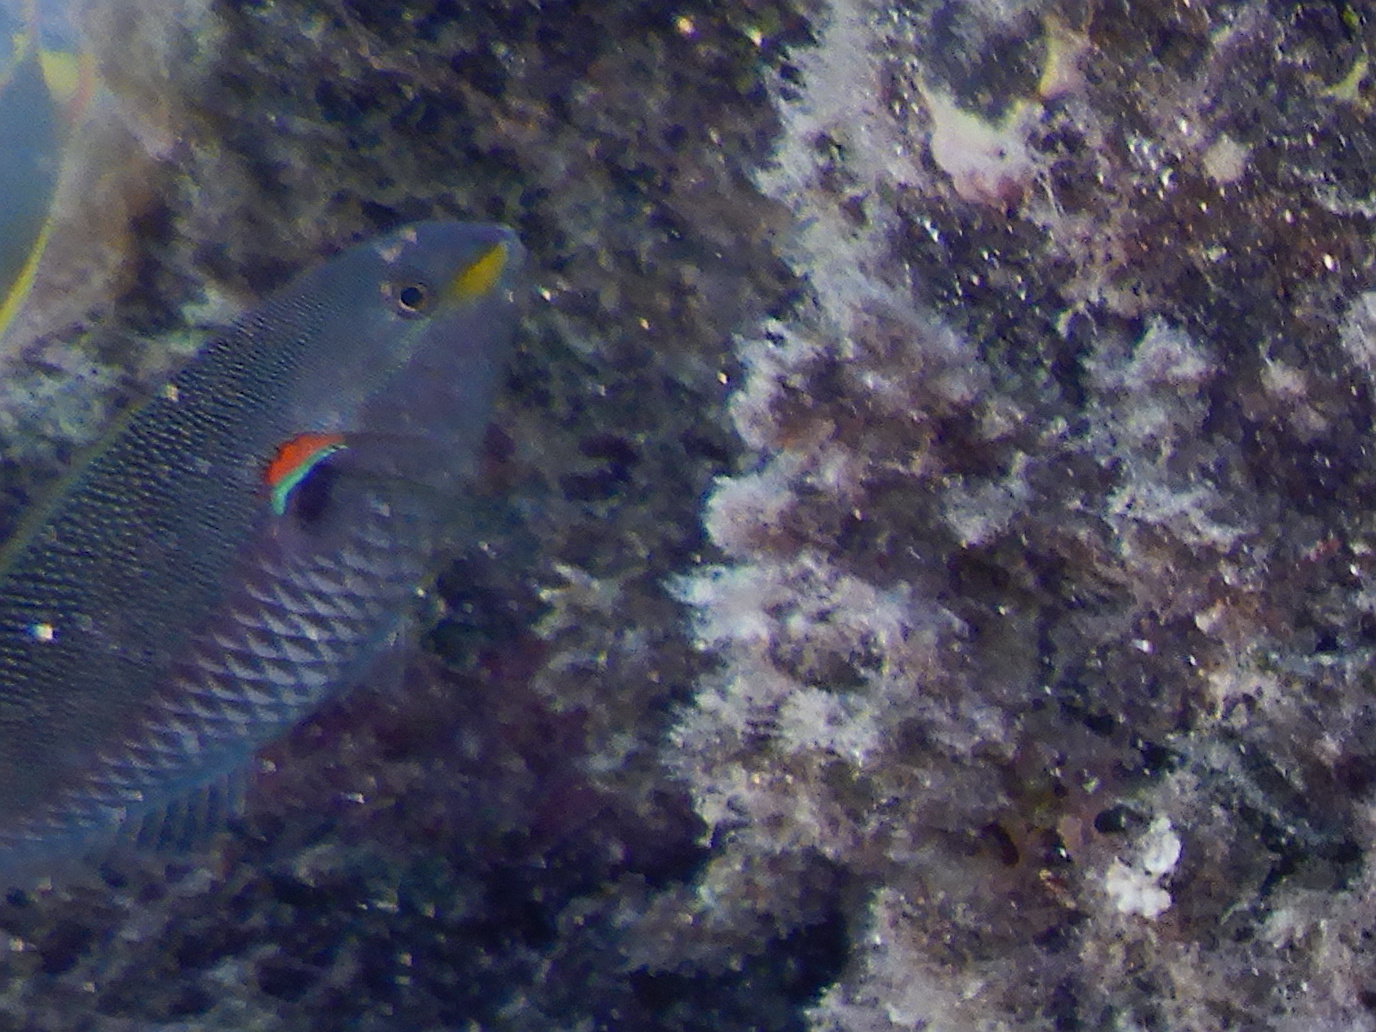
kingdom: Animalia
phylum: Chordata
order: Perciformes
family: Labridae
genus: Stethojulis
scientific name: Stethojulis bandanensis
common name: Red shoulder wrasse
